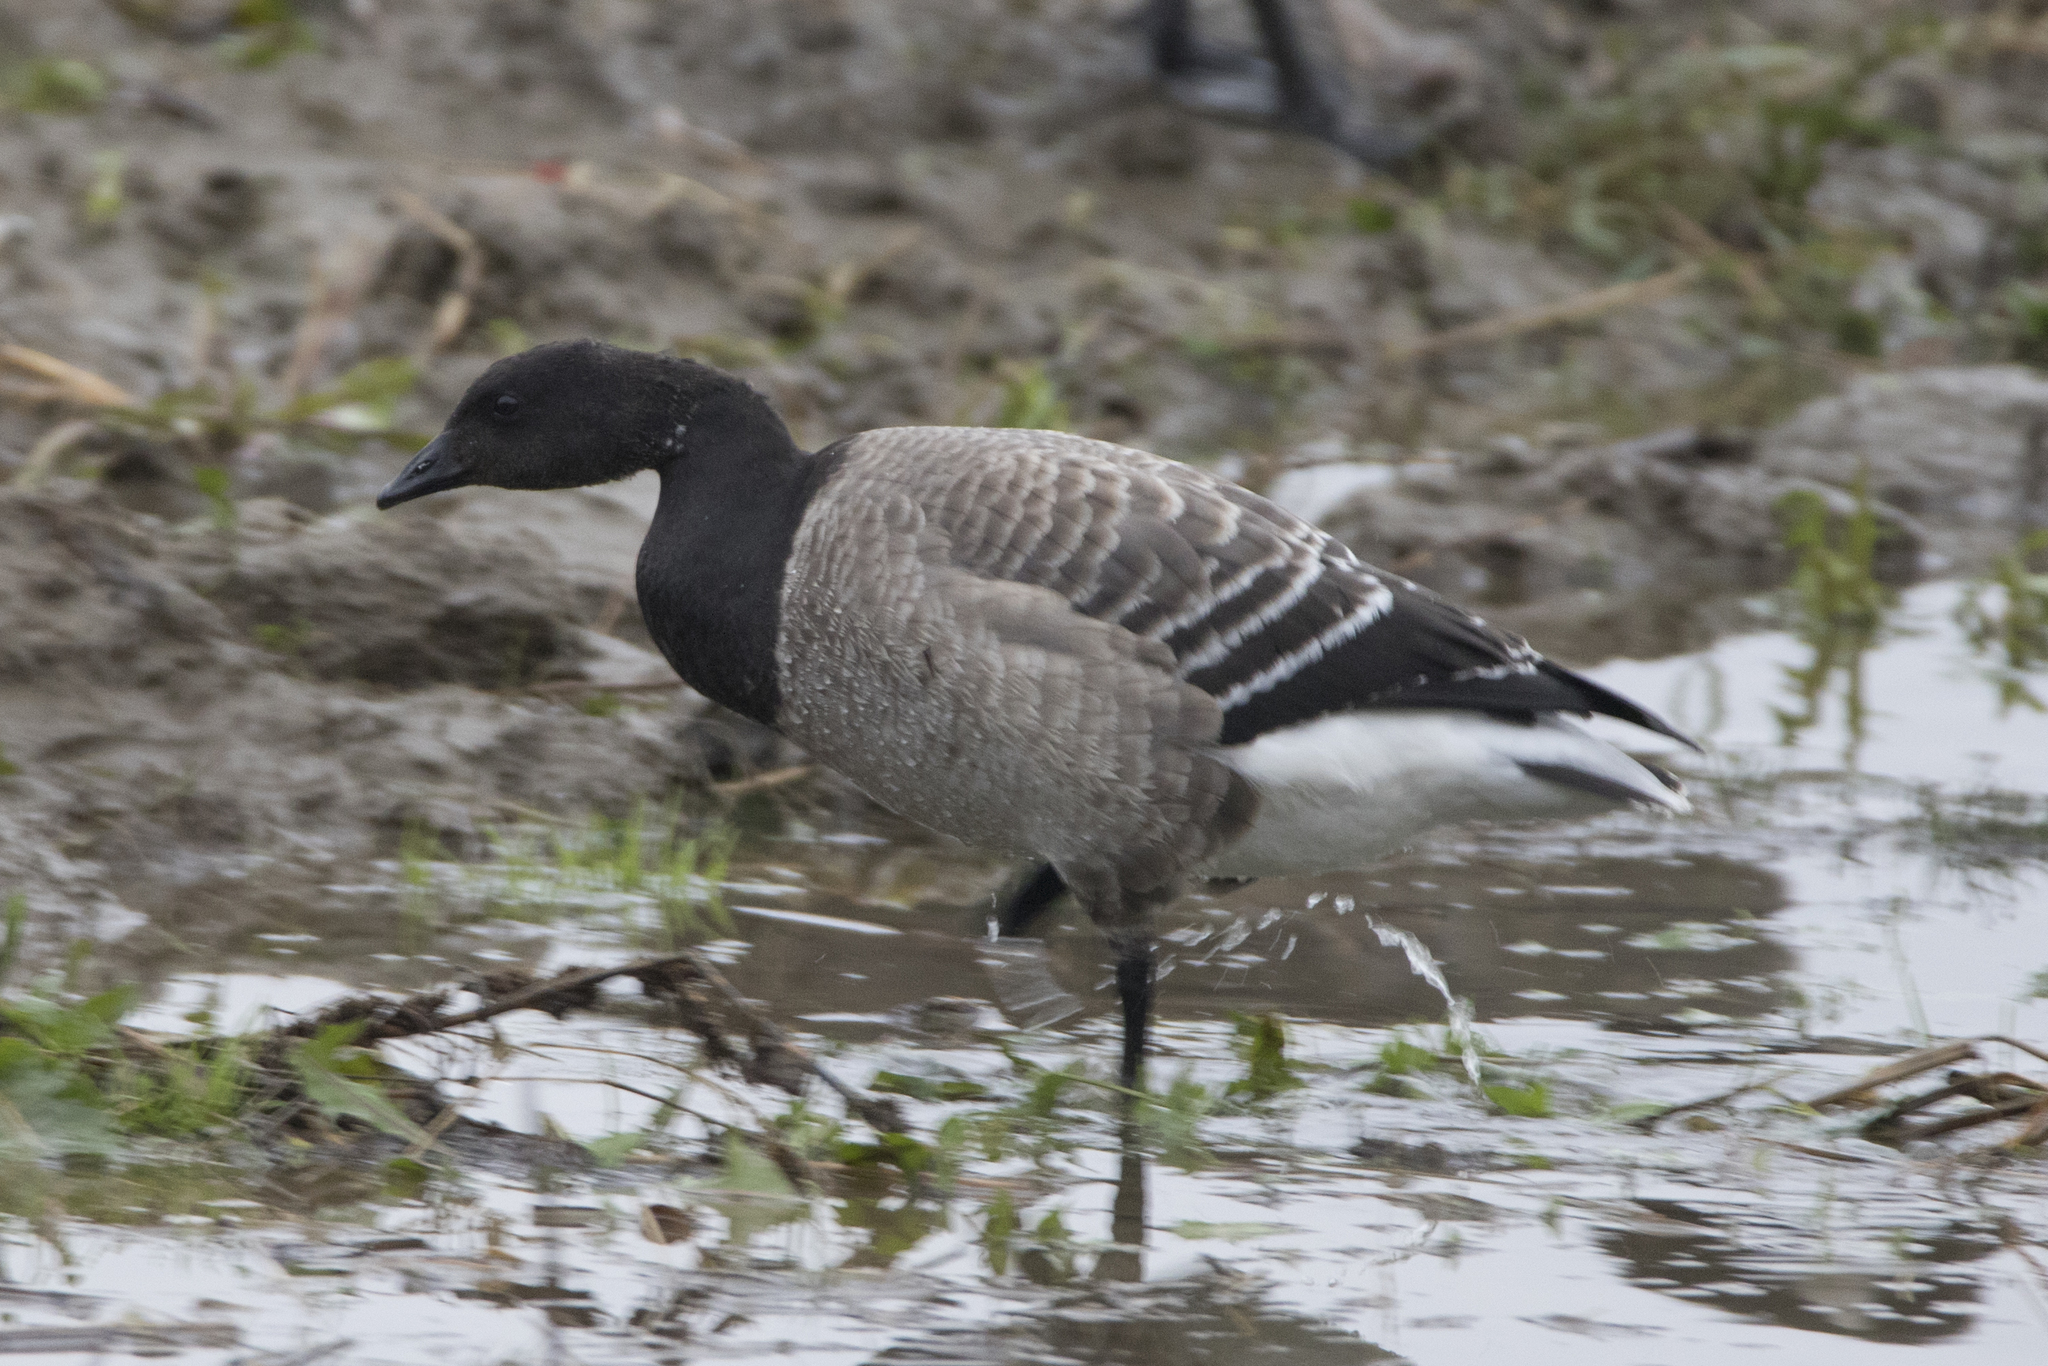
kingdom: Animalia
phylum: Chordata
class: Aves
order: Anseriformes
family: Anatidae
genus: Branta
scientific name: Branta bernicla
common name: Brant goose
